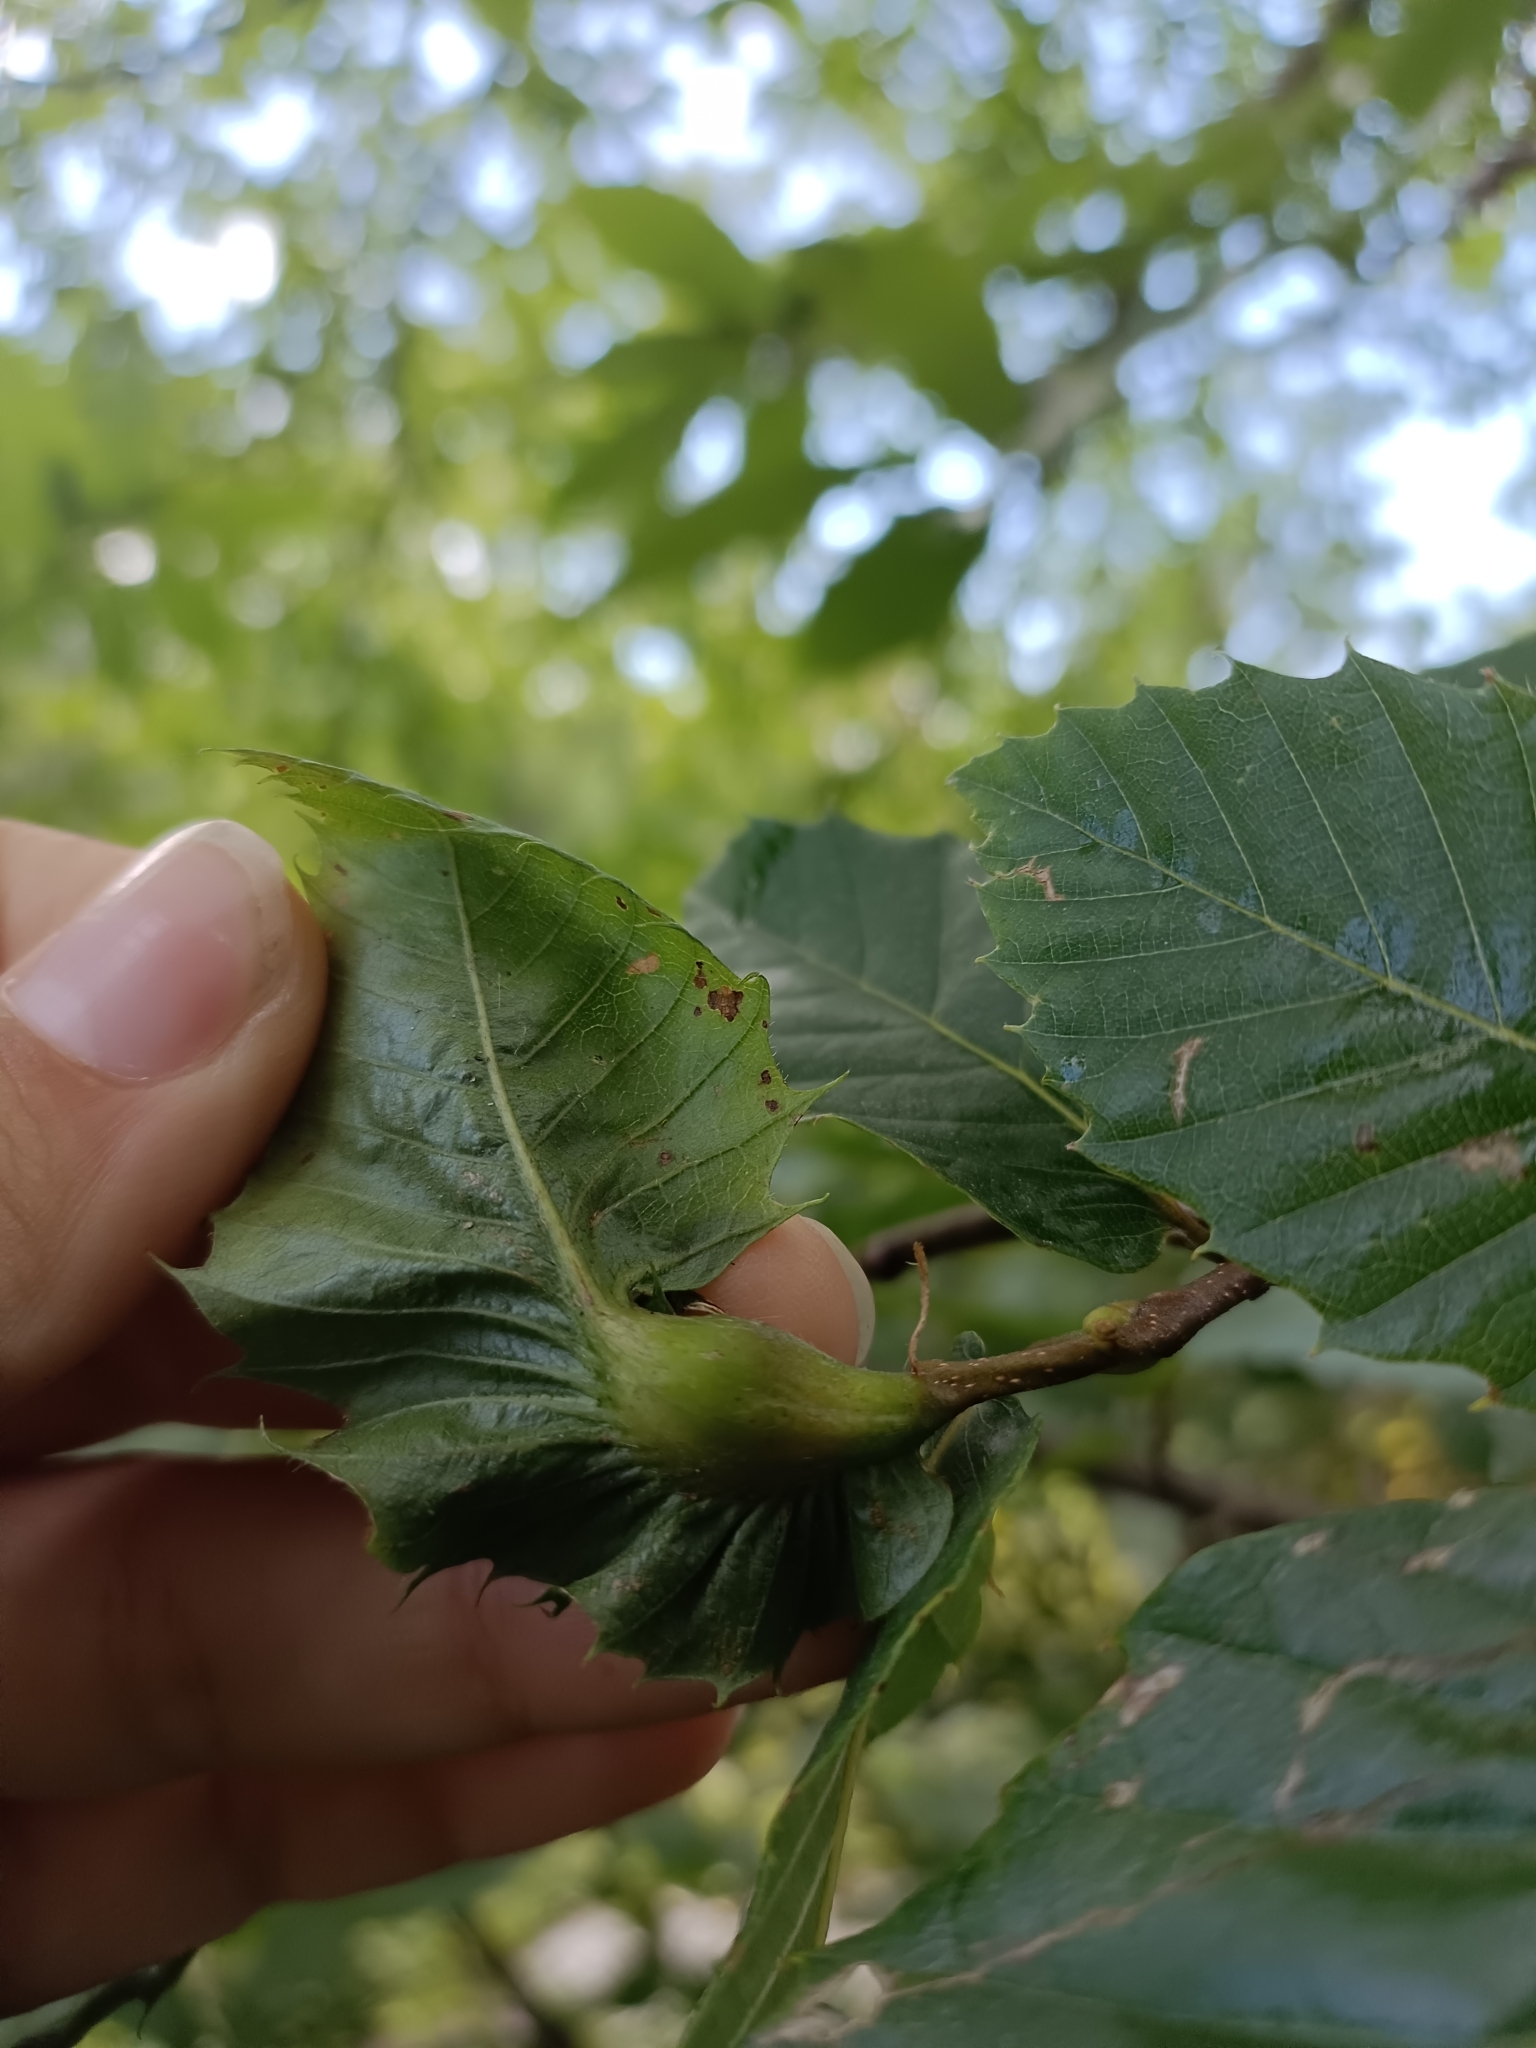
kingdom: Animalia
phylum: Arthropoda
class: Insecta
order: Hymenoptera
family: Cynipidae
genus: Dryocosmus
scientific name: Dryocosmus kuriphilus
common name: Asian chestnut gall wasp
